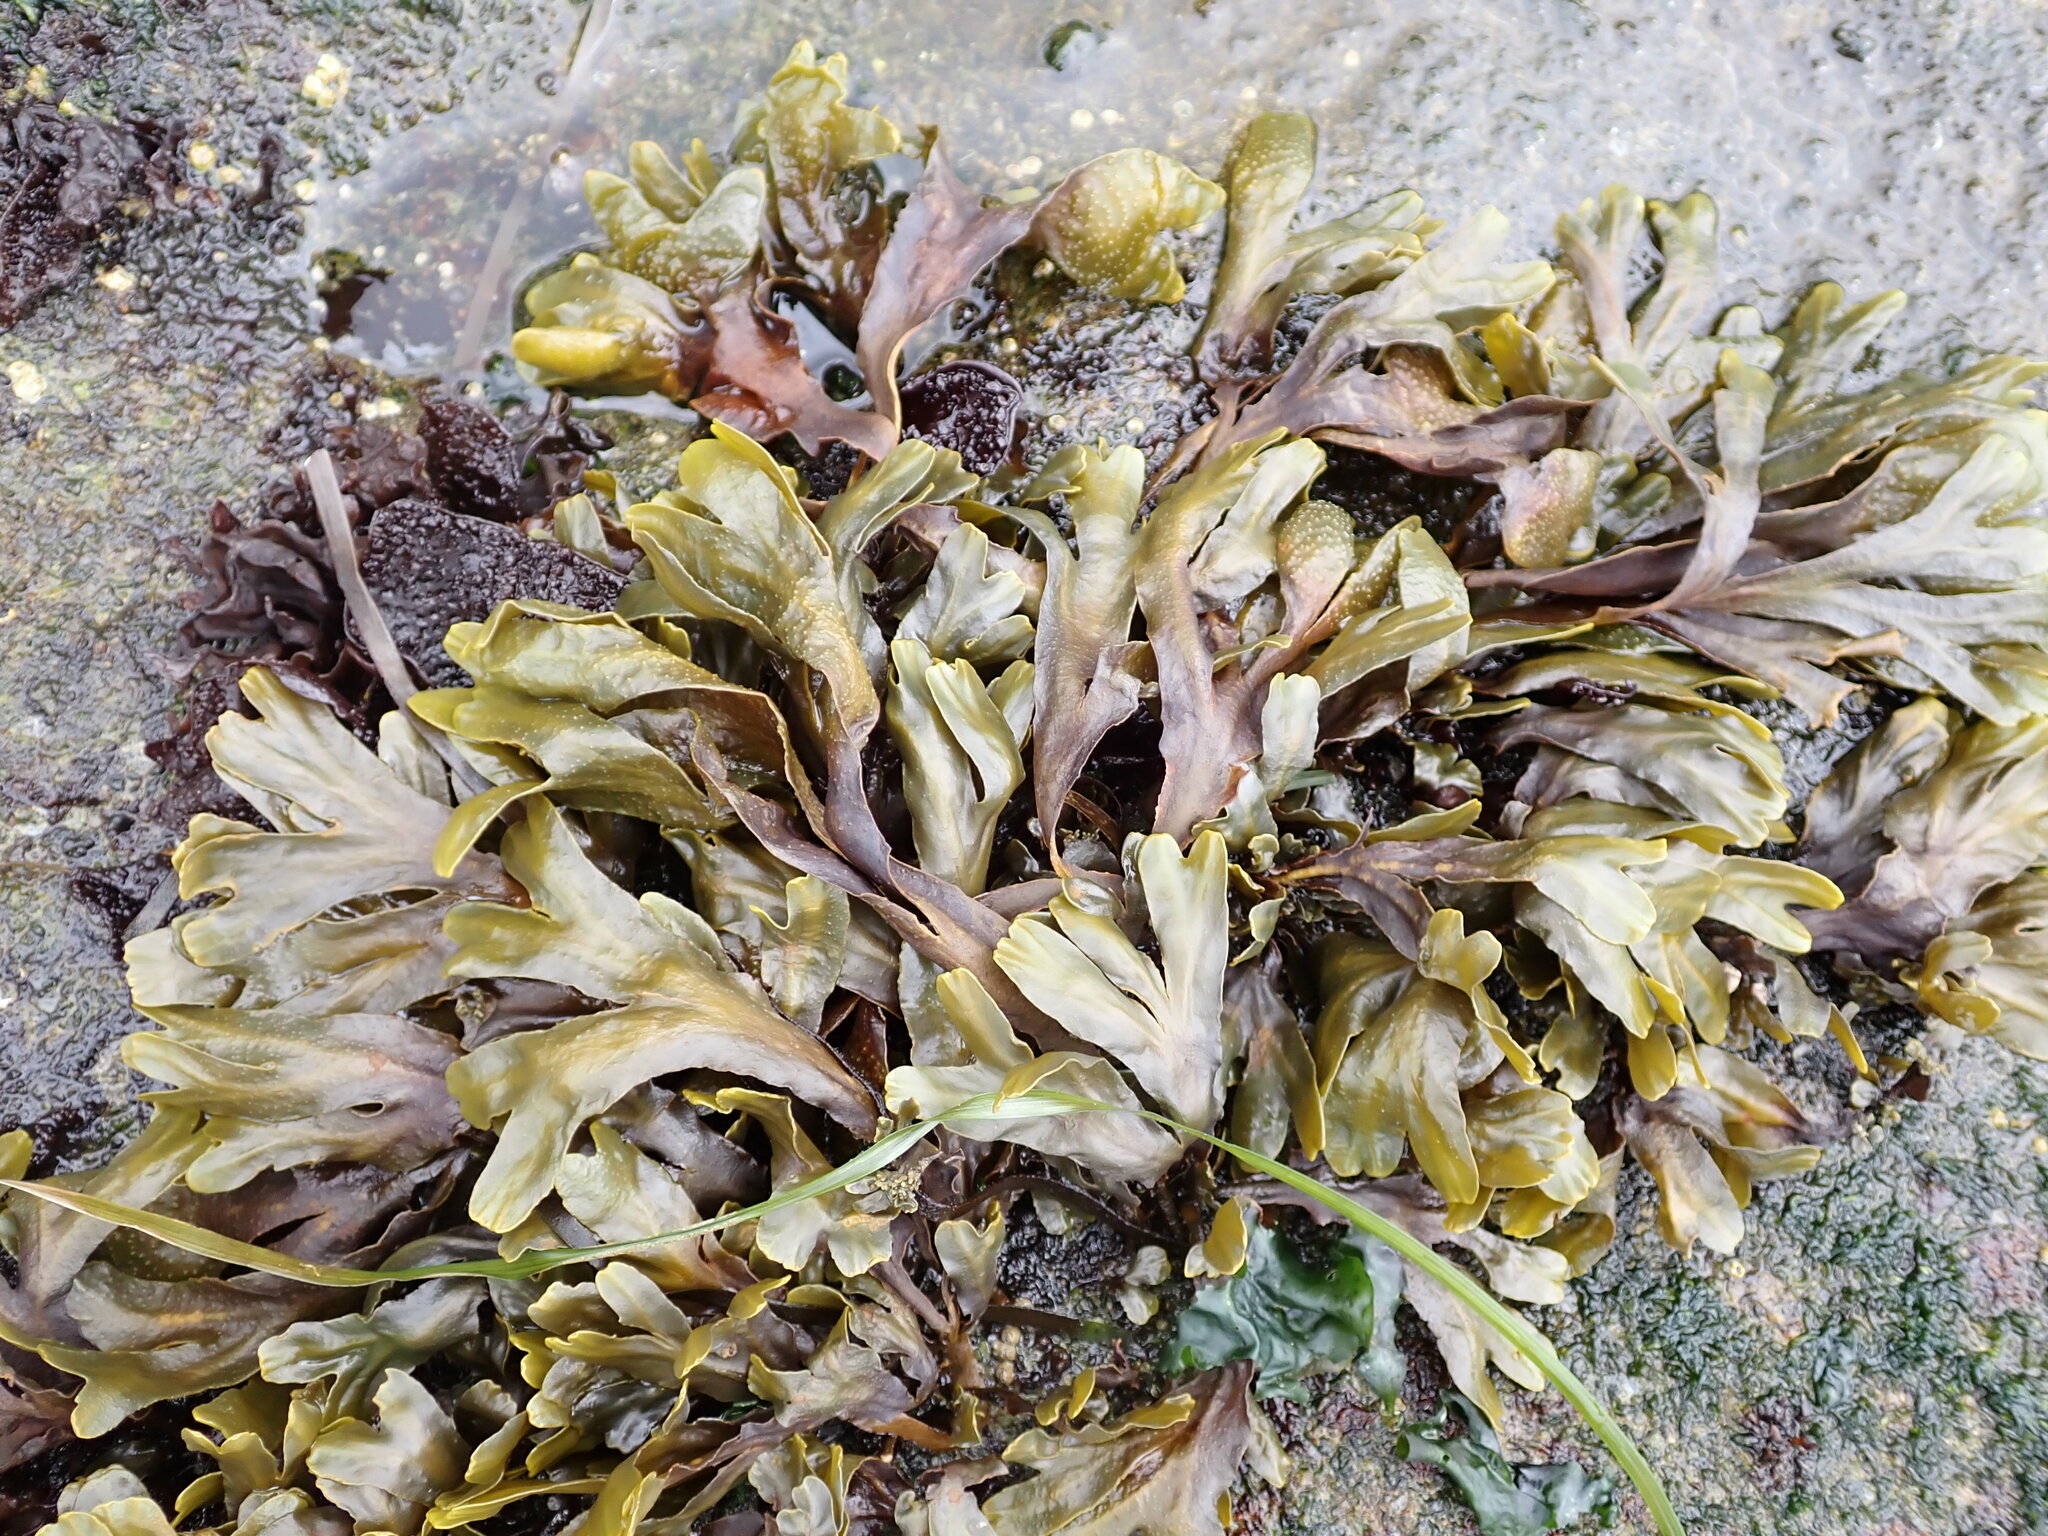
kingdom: Chromista
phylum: Ochrophyta
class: Phaeophyceae
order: Fucales
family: Fucaceae
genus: Fucus
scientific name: Fucus distichus
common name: Rockweed
